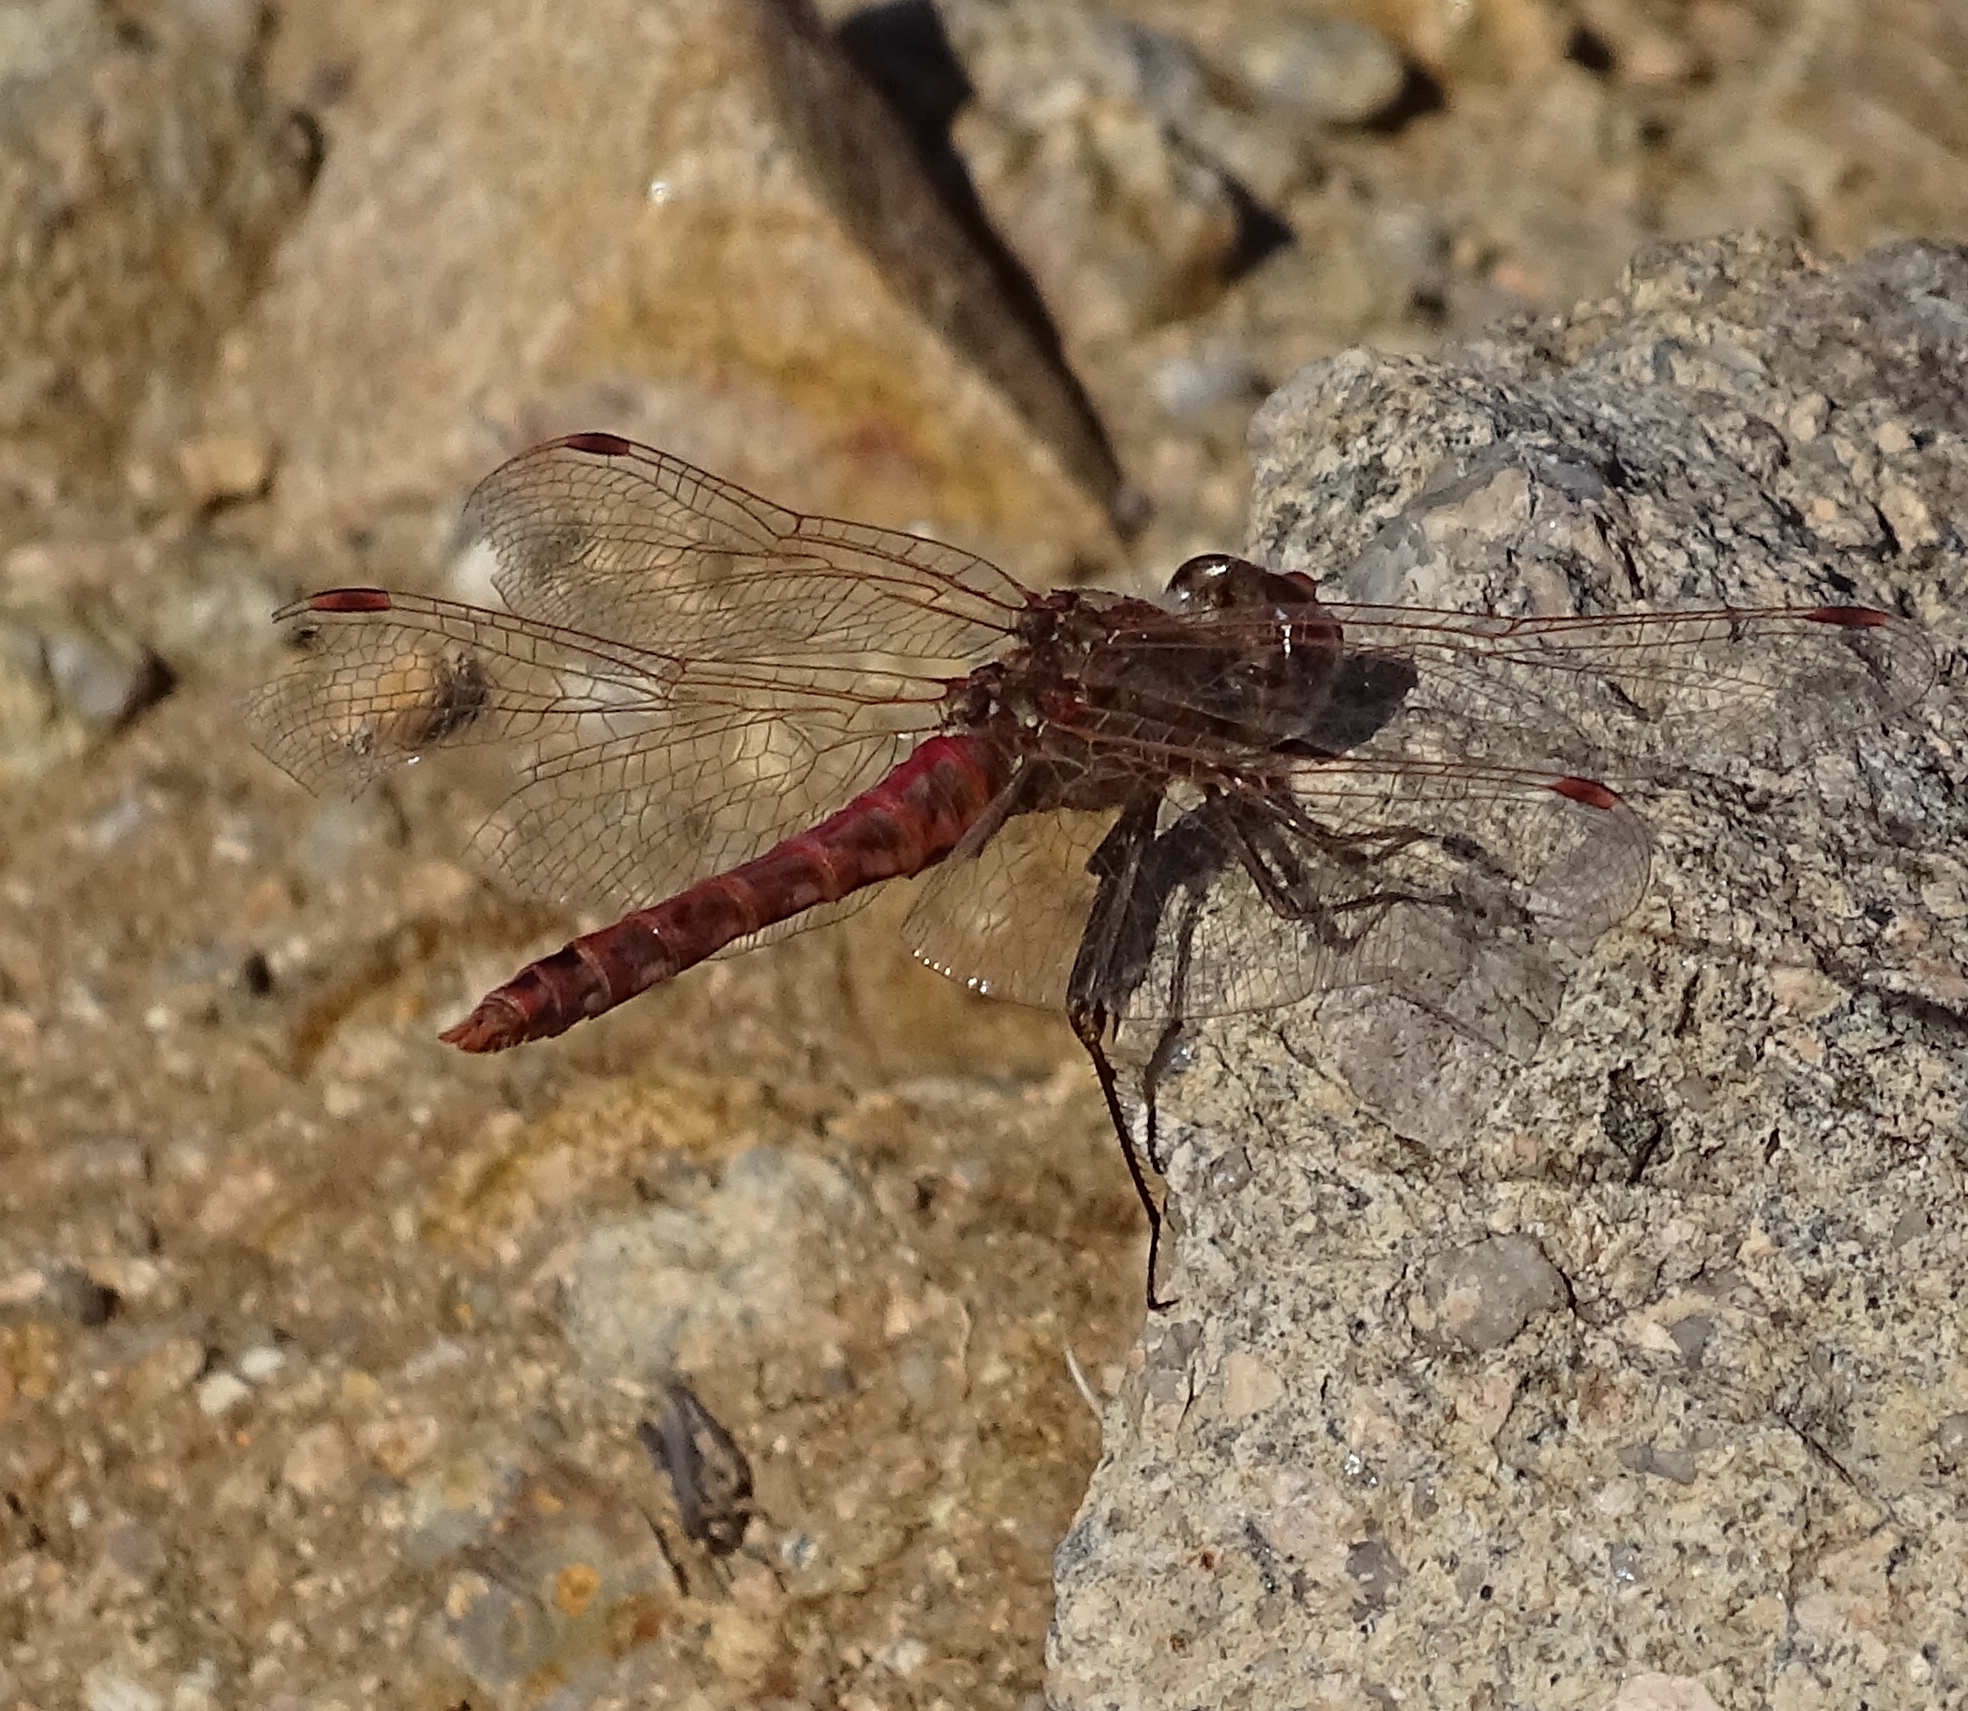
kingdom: Animalia
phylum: Arthropoda
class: Insecta
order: Odonata
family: Libellulidae
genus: Sympetrum
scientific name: Sympetrum corruptum
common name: Variegated meadowhawk
